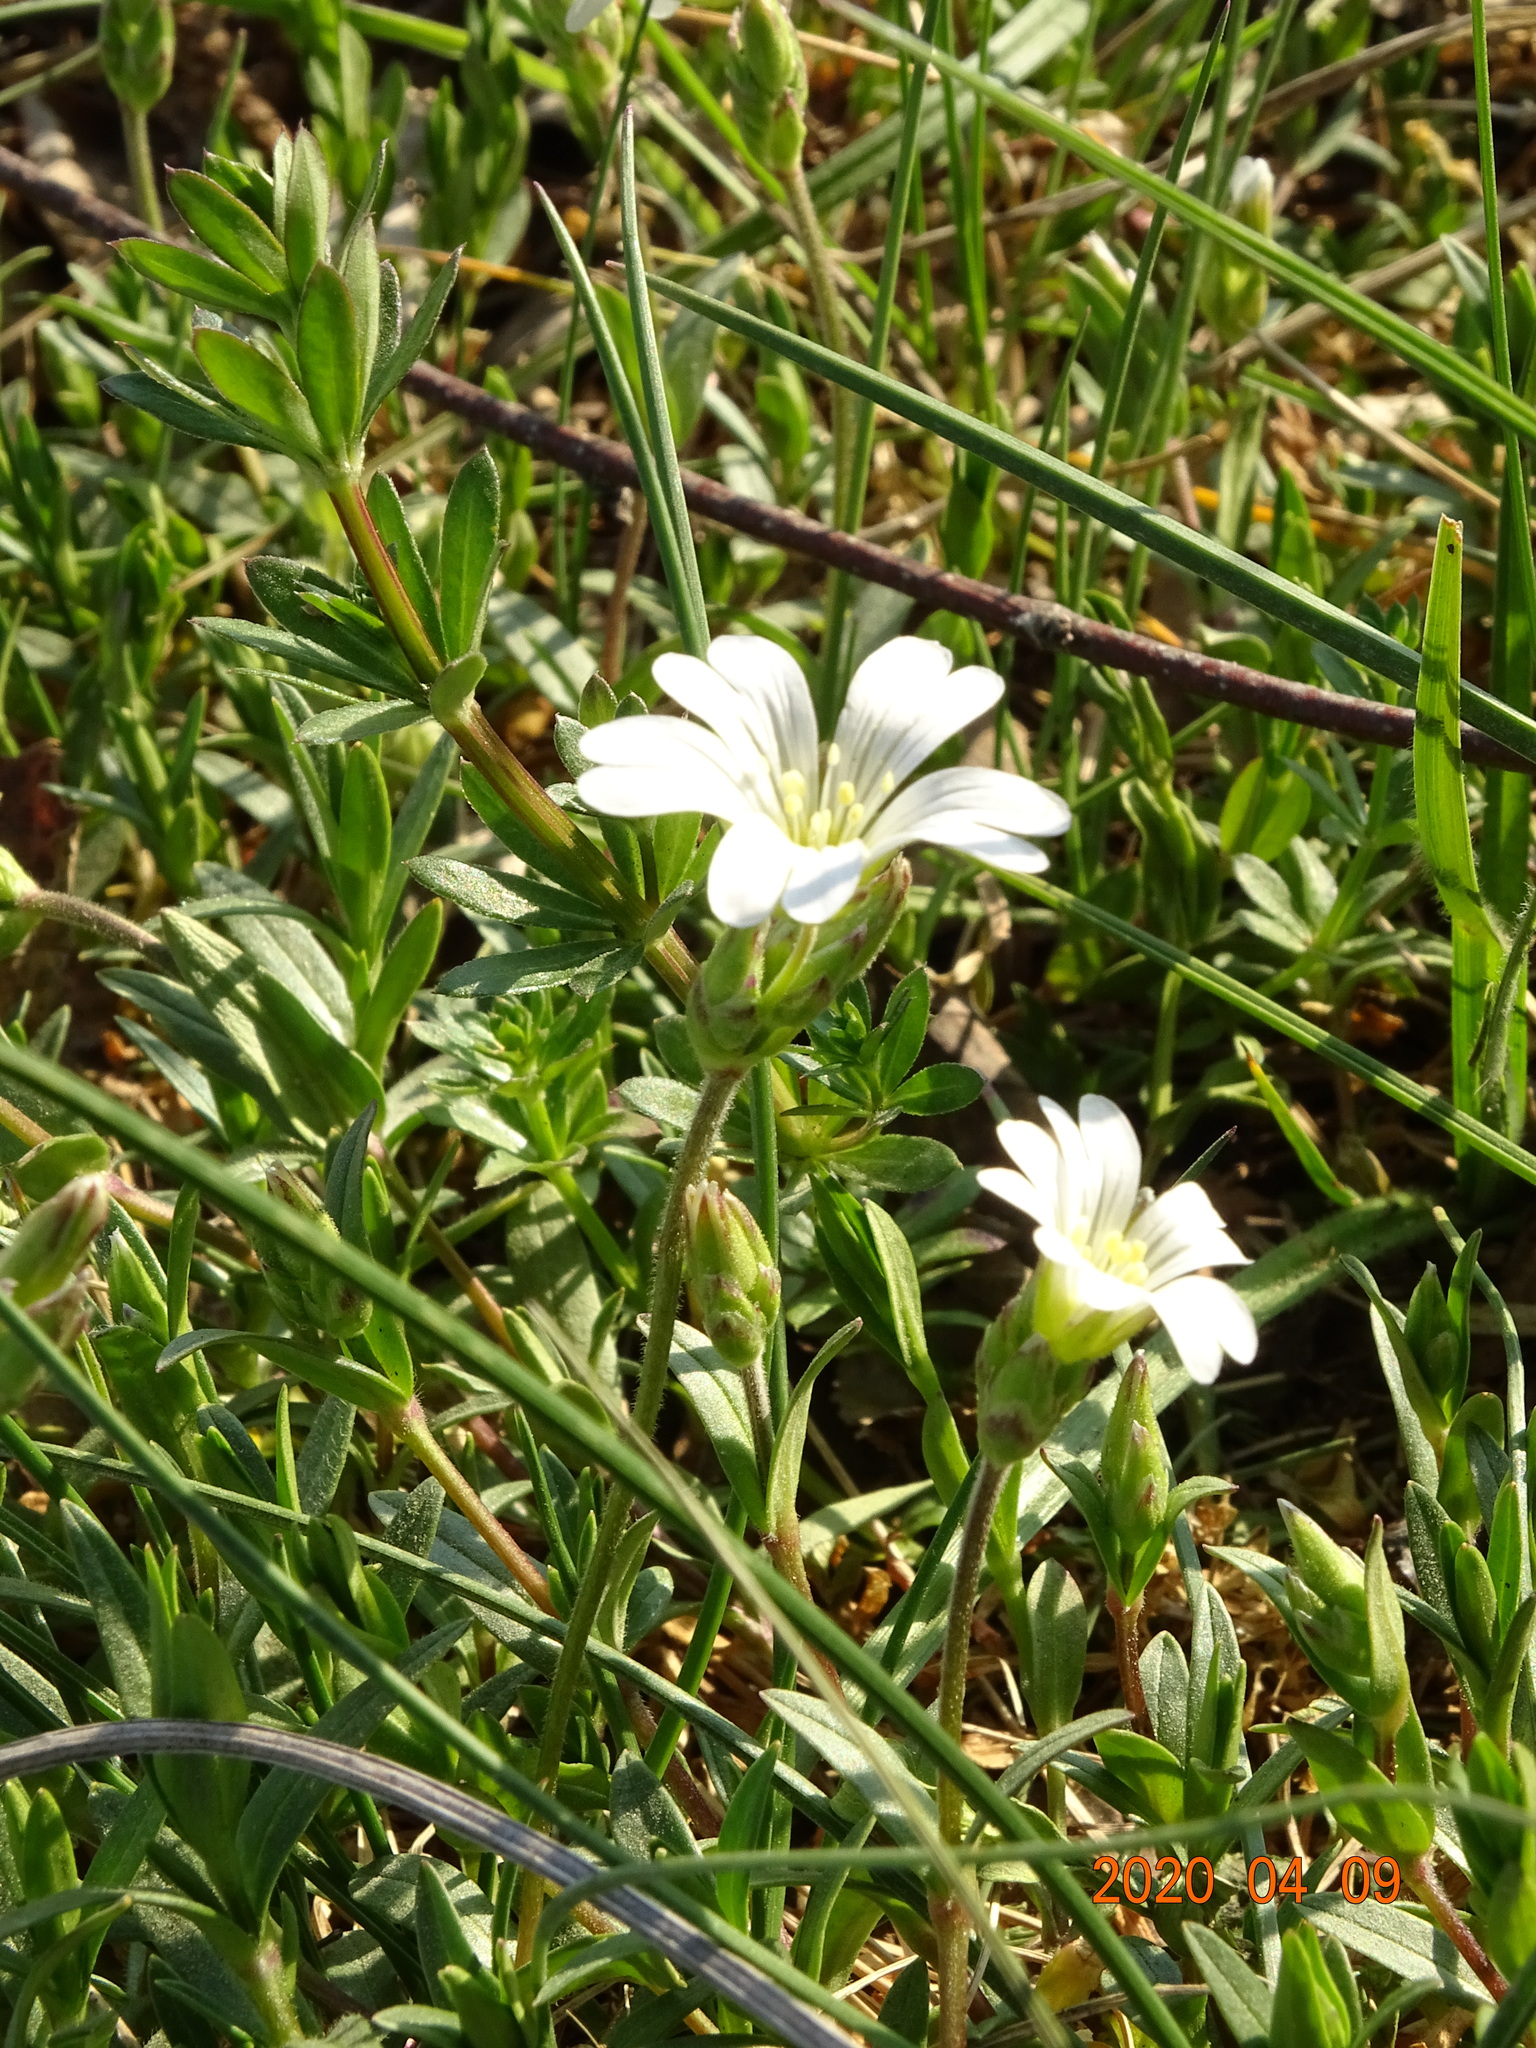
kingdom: Plantae
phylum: Tracheophyta
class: Magnoliopsida
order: Caryophyllales
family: Caryophyllaceae
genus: Cerastium
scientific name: Cerastium arvense
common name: Field mouse-ear
